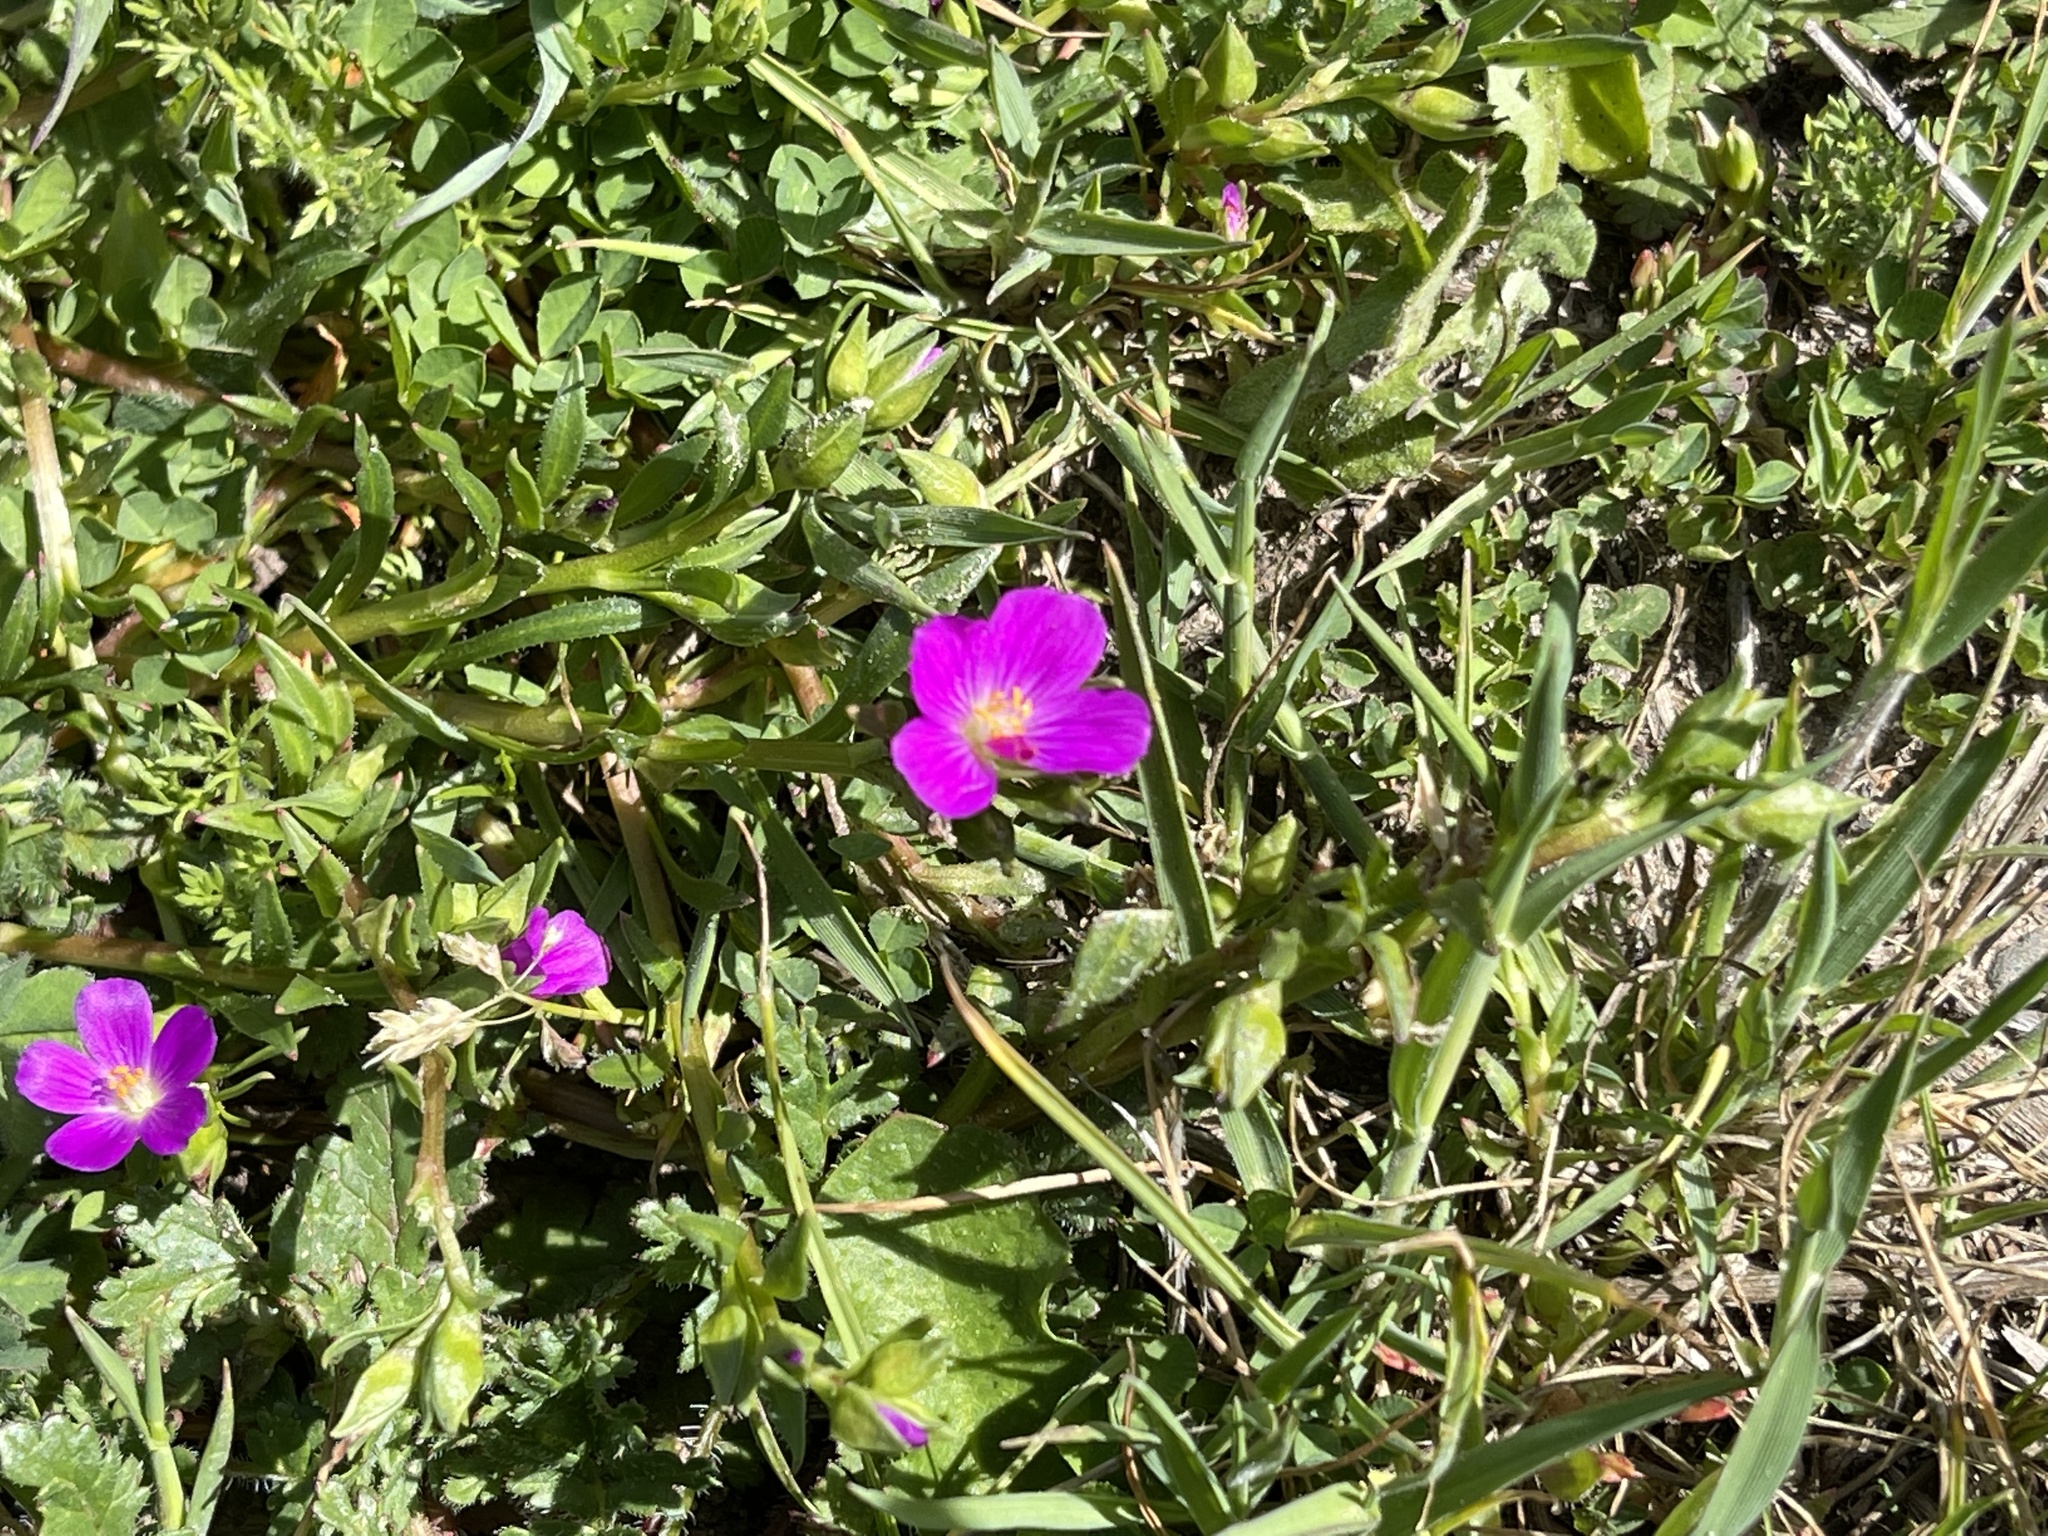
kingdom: Plantae
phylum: Tracheophyta
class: Magnoliopsida
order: Caryophyllales
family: Montiaceae
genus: Calandrinia
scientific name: Calandrinia menziesii
